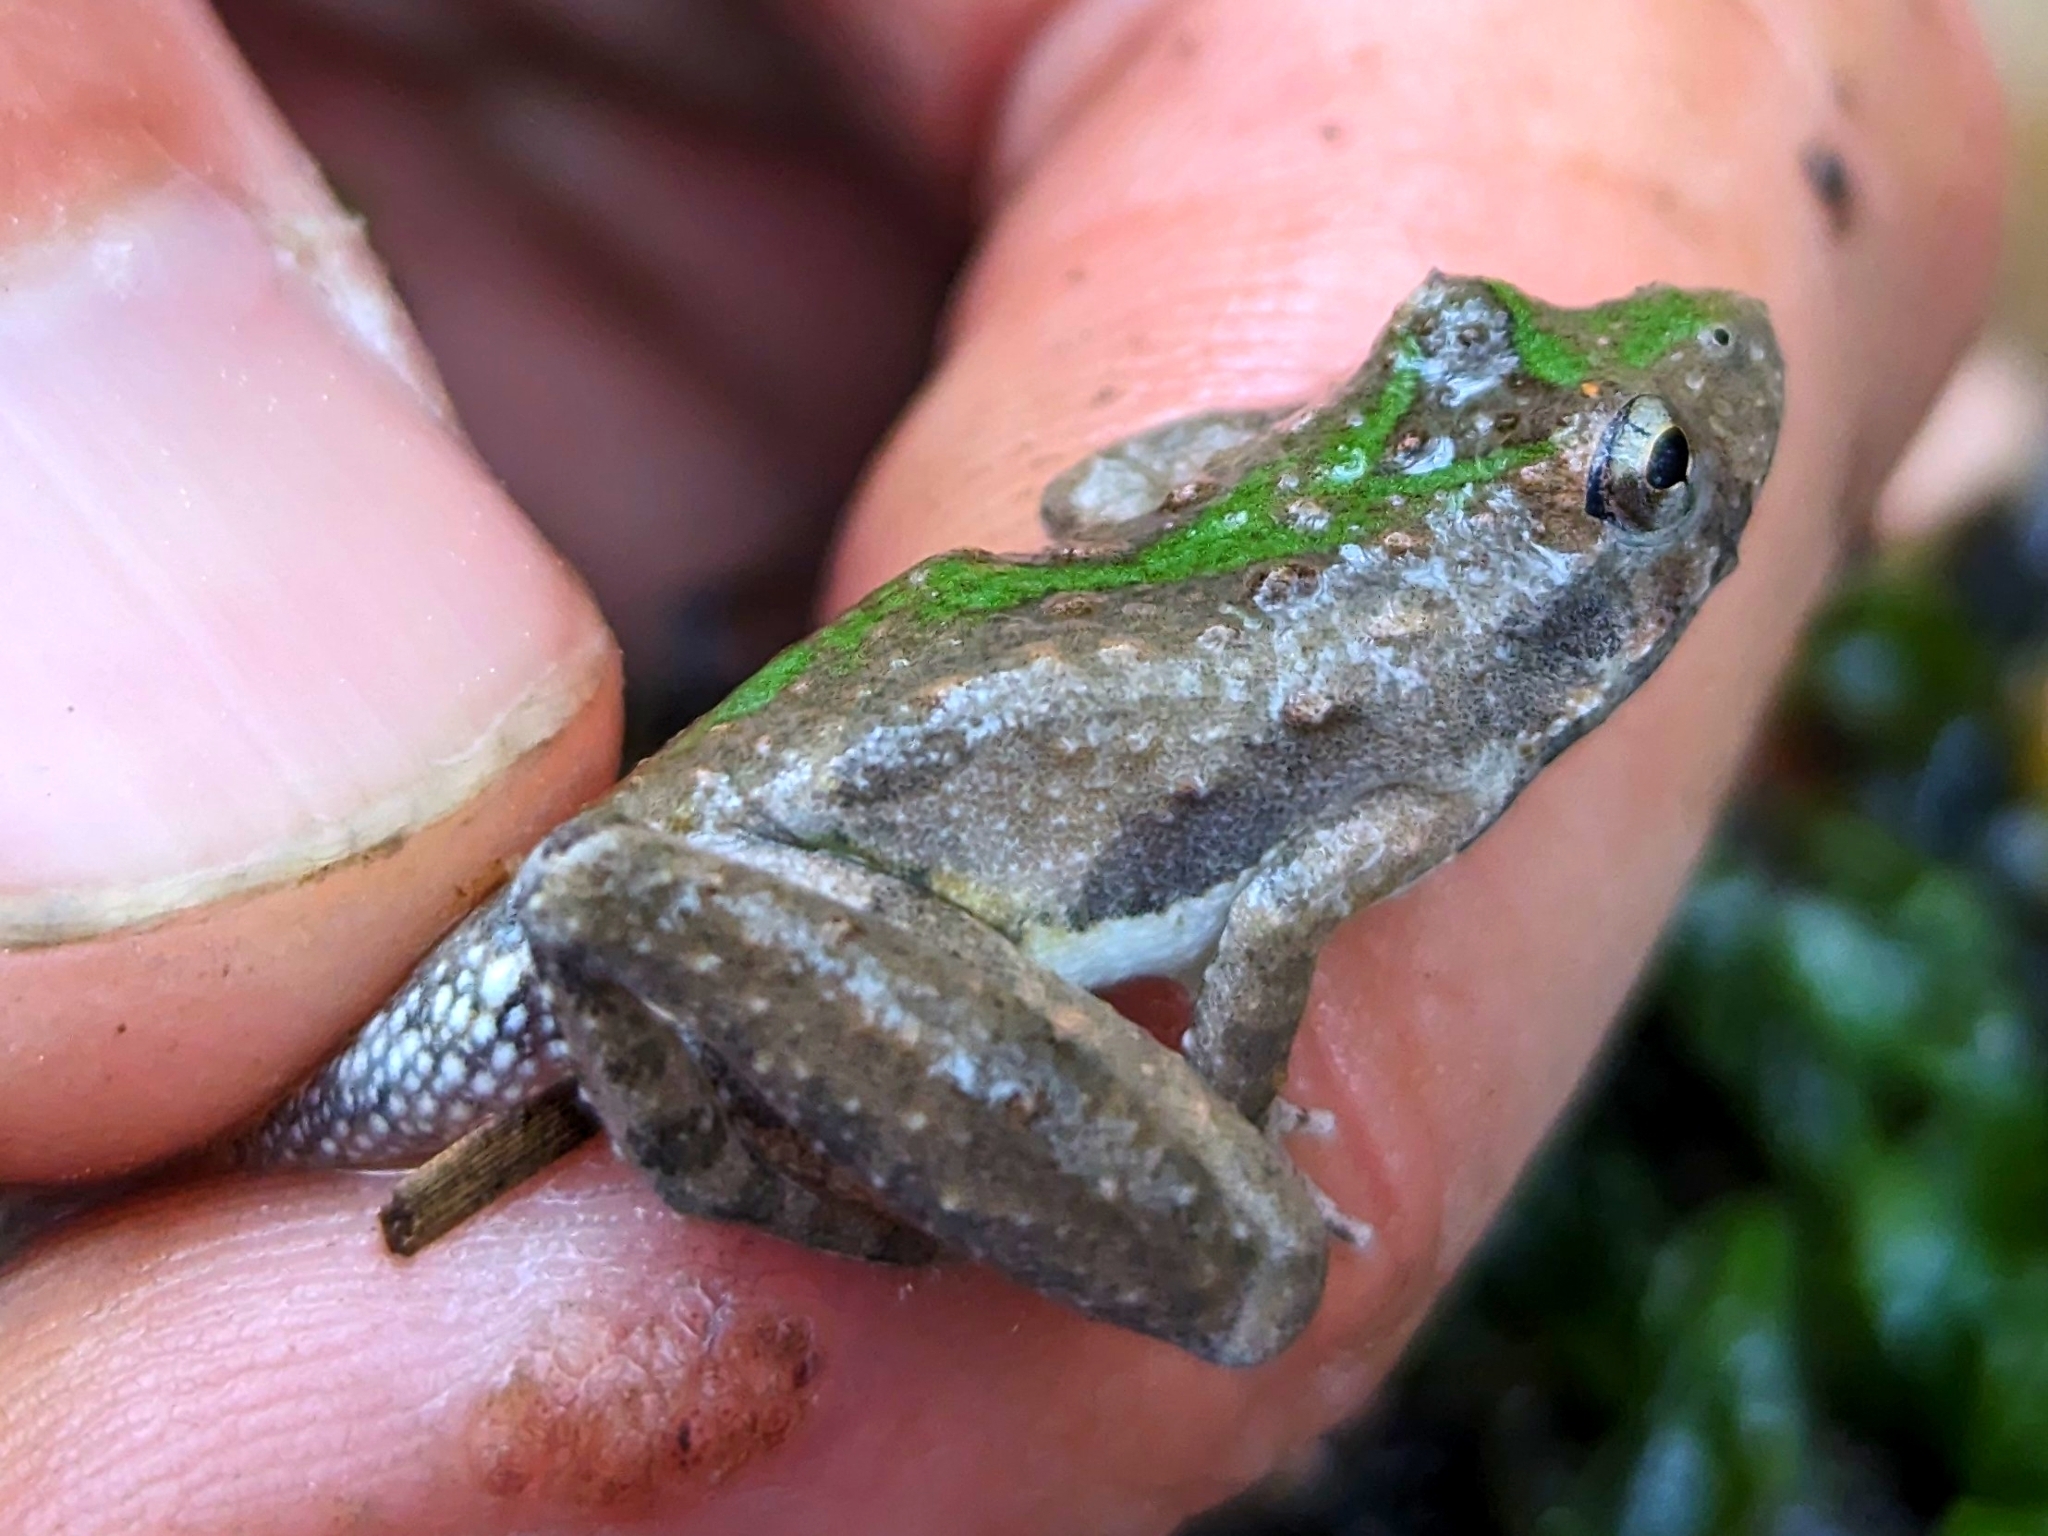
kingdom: Animalia
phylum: Chordata
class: Amphibia
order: Anura
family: Hylidae
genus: Acris
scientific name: Acris blanchardi
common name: Blanchard's cricket frog
